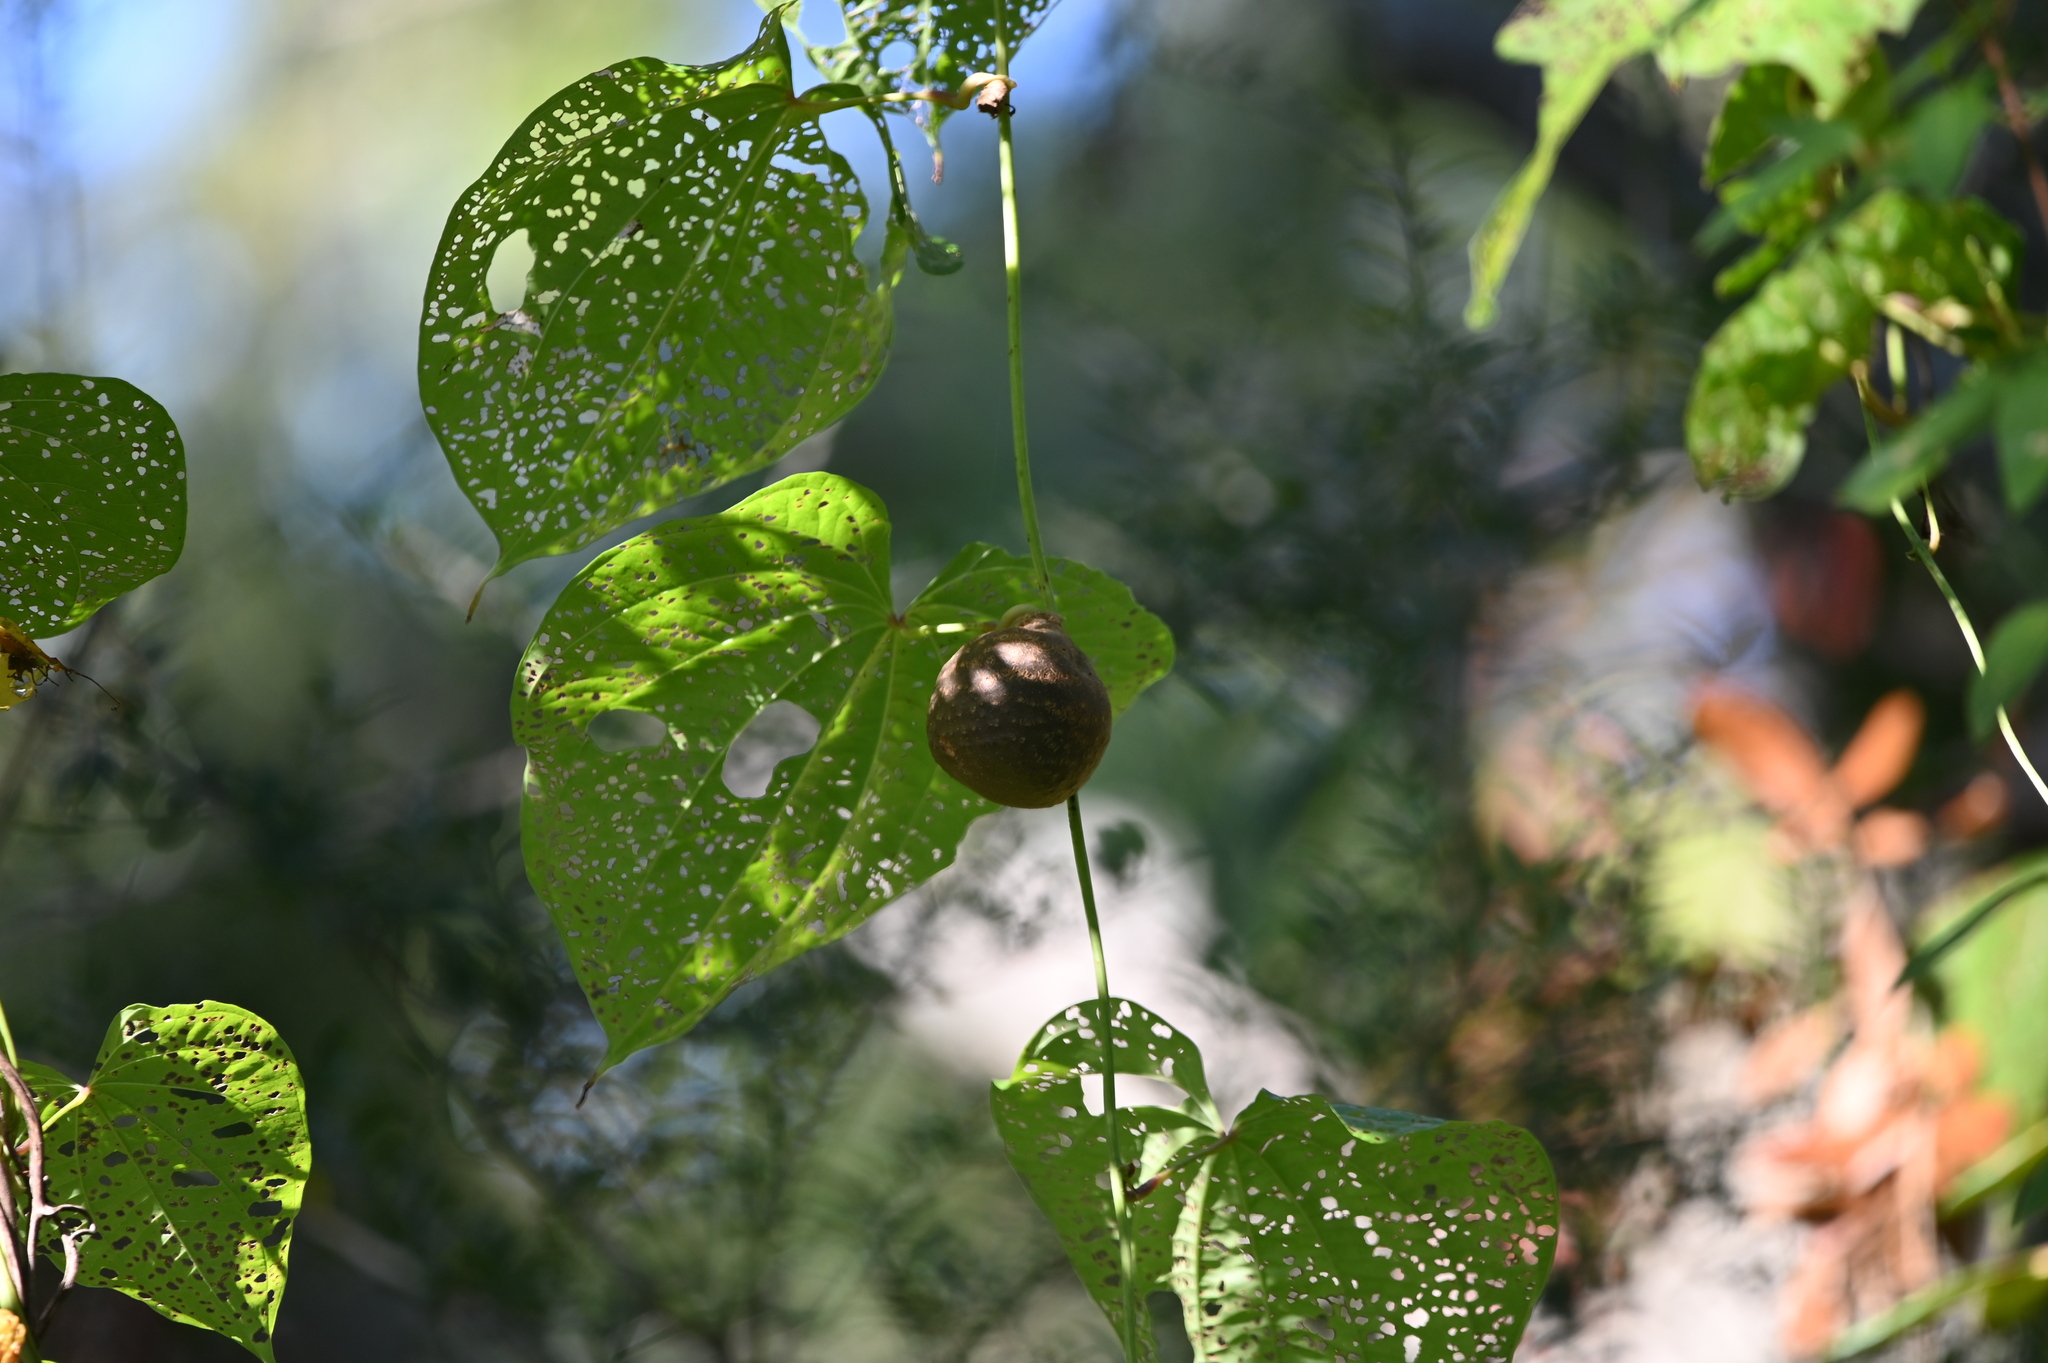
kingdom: Plantae
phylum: Tracheophyta
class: Liliopsida
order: Dioscoreales
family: Dioscoreaceae
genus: Dioscorea
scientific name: Dioscorea bulbifera
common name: Air yam
